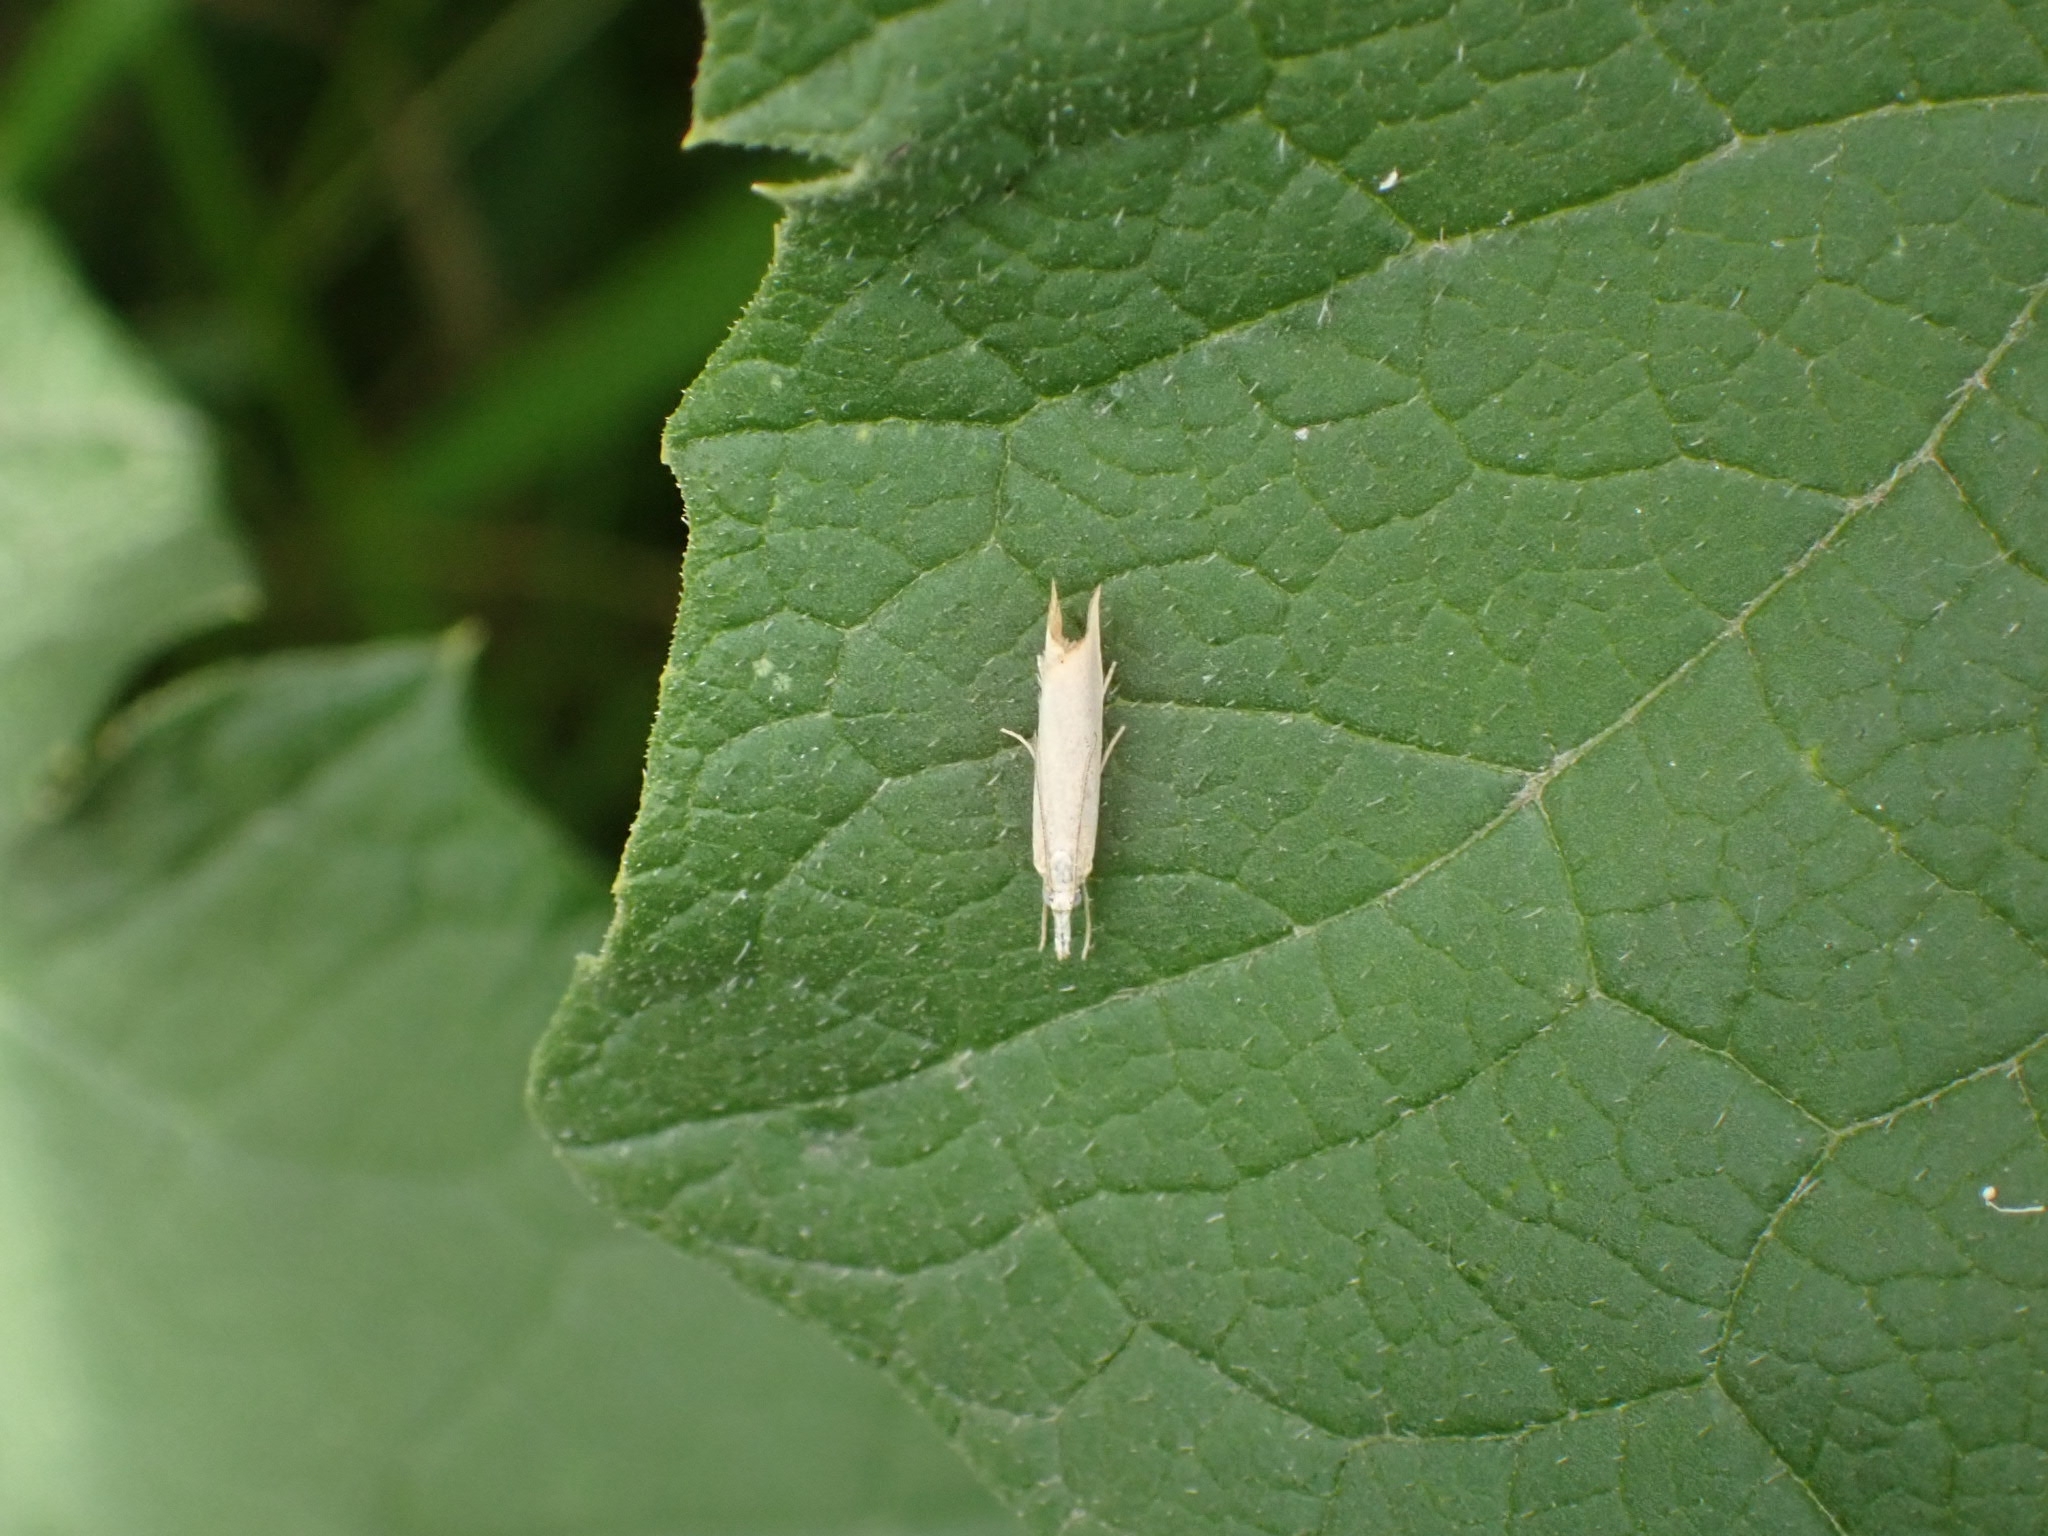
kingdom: Animalia
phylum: Arthropoda
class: Insecta
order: Lepidoptera
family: Crambidae
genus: Agriphila
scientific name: Agriphila straminella
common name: Straw grass-veneer
